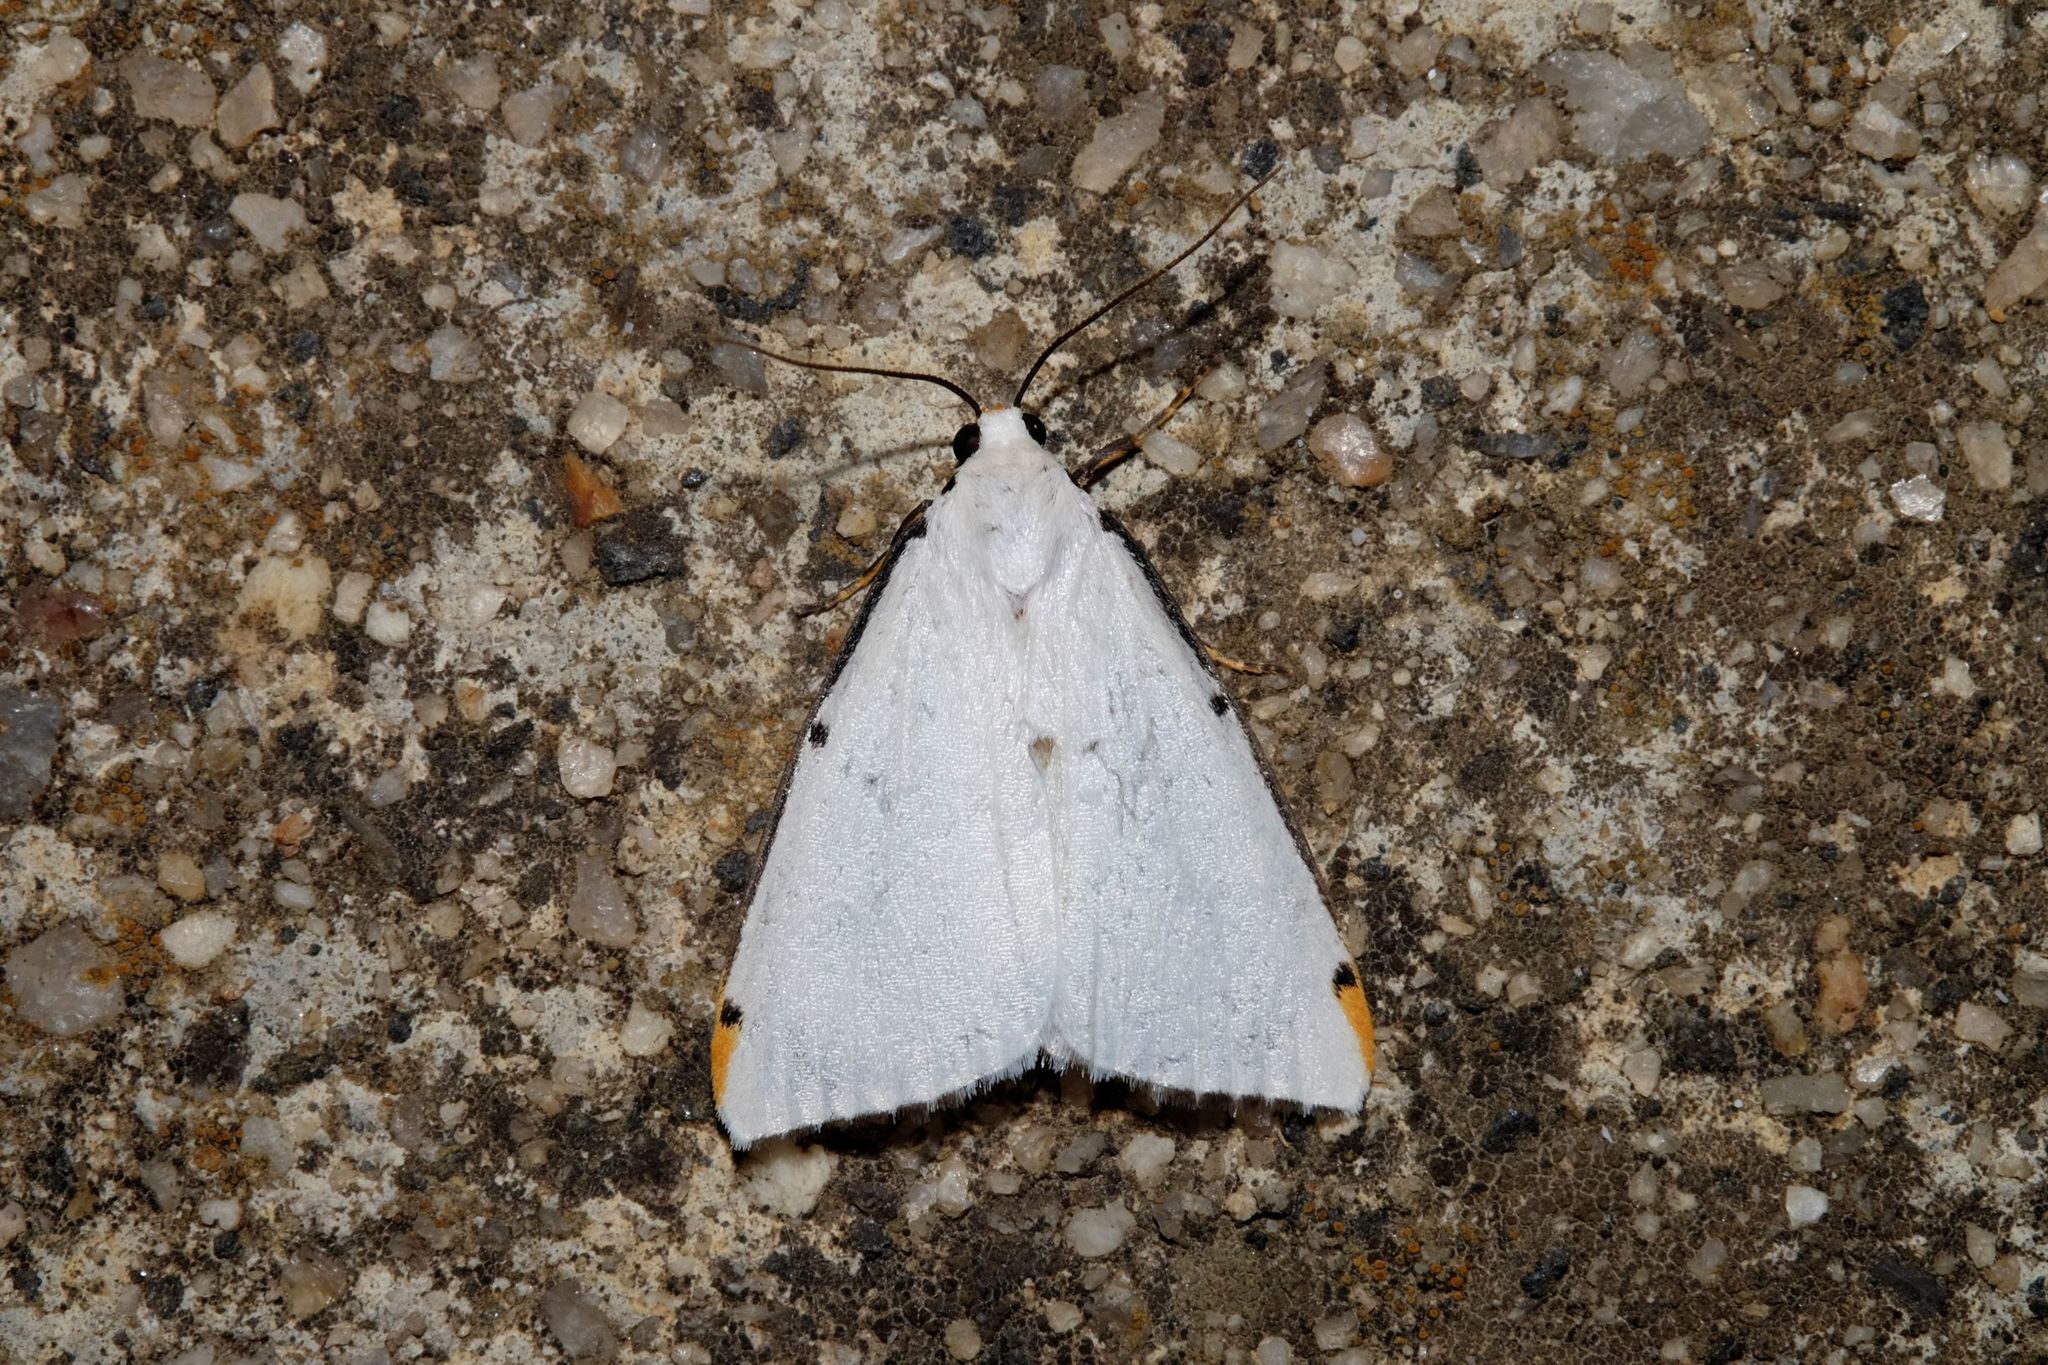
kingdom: Animalia
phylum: Arthropoda
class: Insecta
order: Lepidoptera
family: Erebidae
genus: Termessa
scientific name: Termessa nivosa
